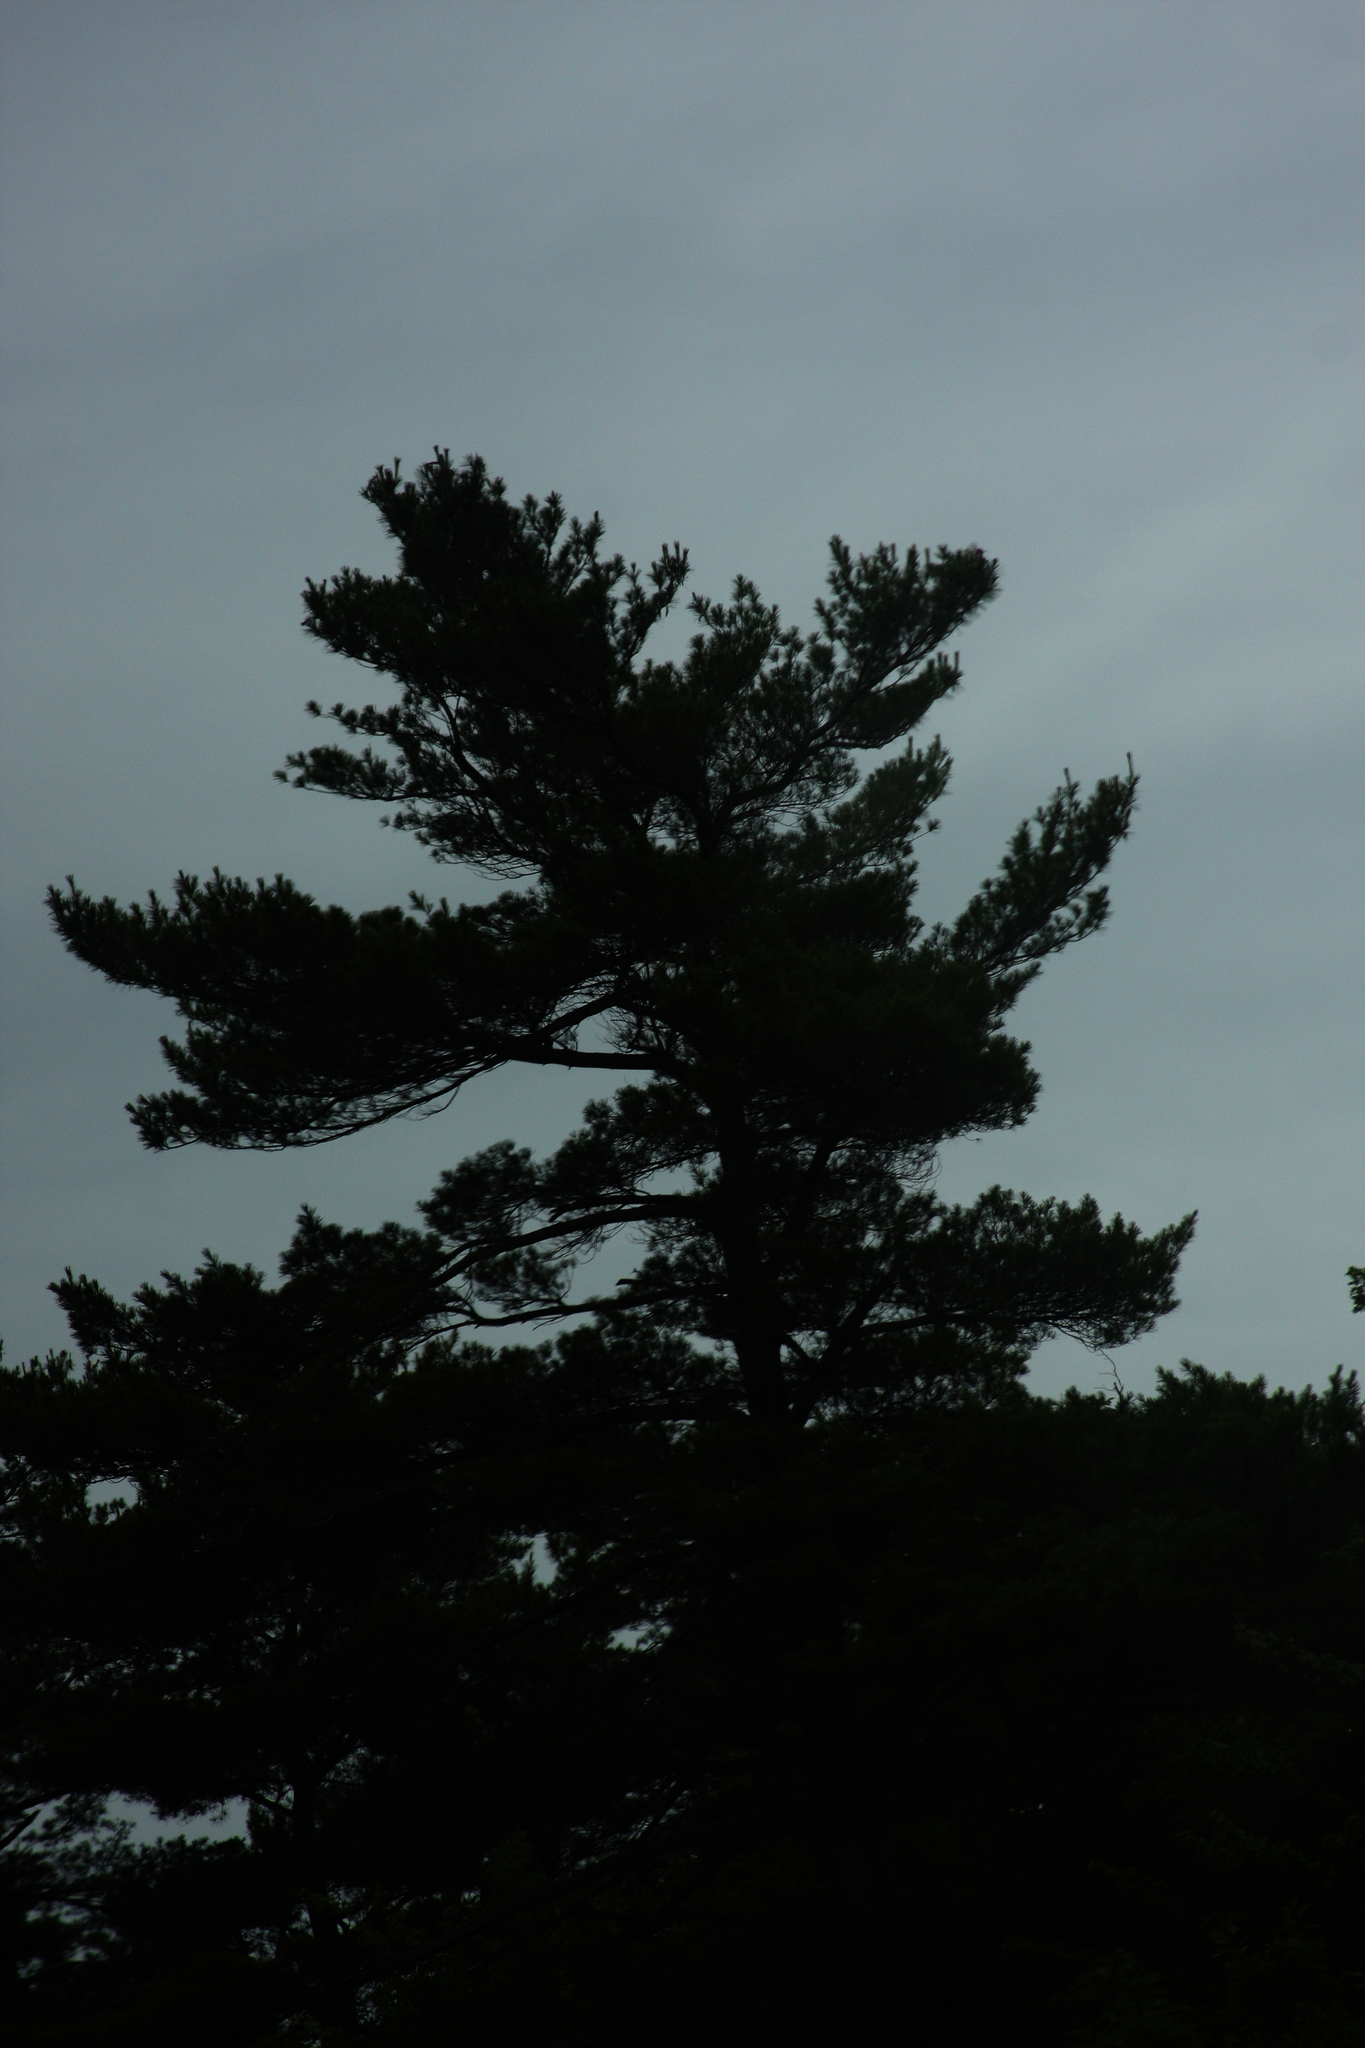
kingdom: Plantae
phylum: Tracheophyta
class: Pinopsida
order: Pinales
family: Pinaceae
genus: Pinus
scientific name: Pinus strobus
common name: Weymouth pine
